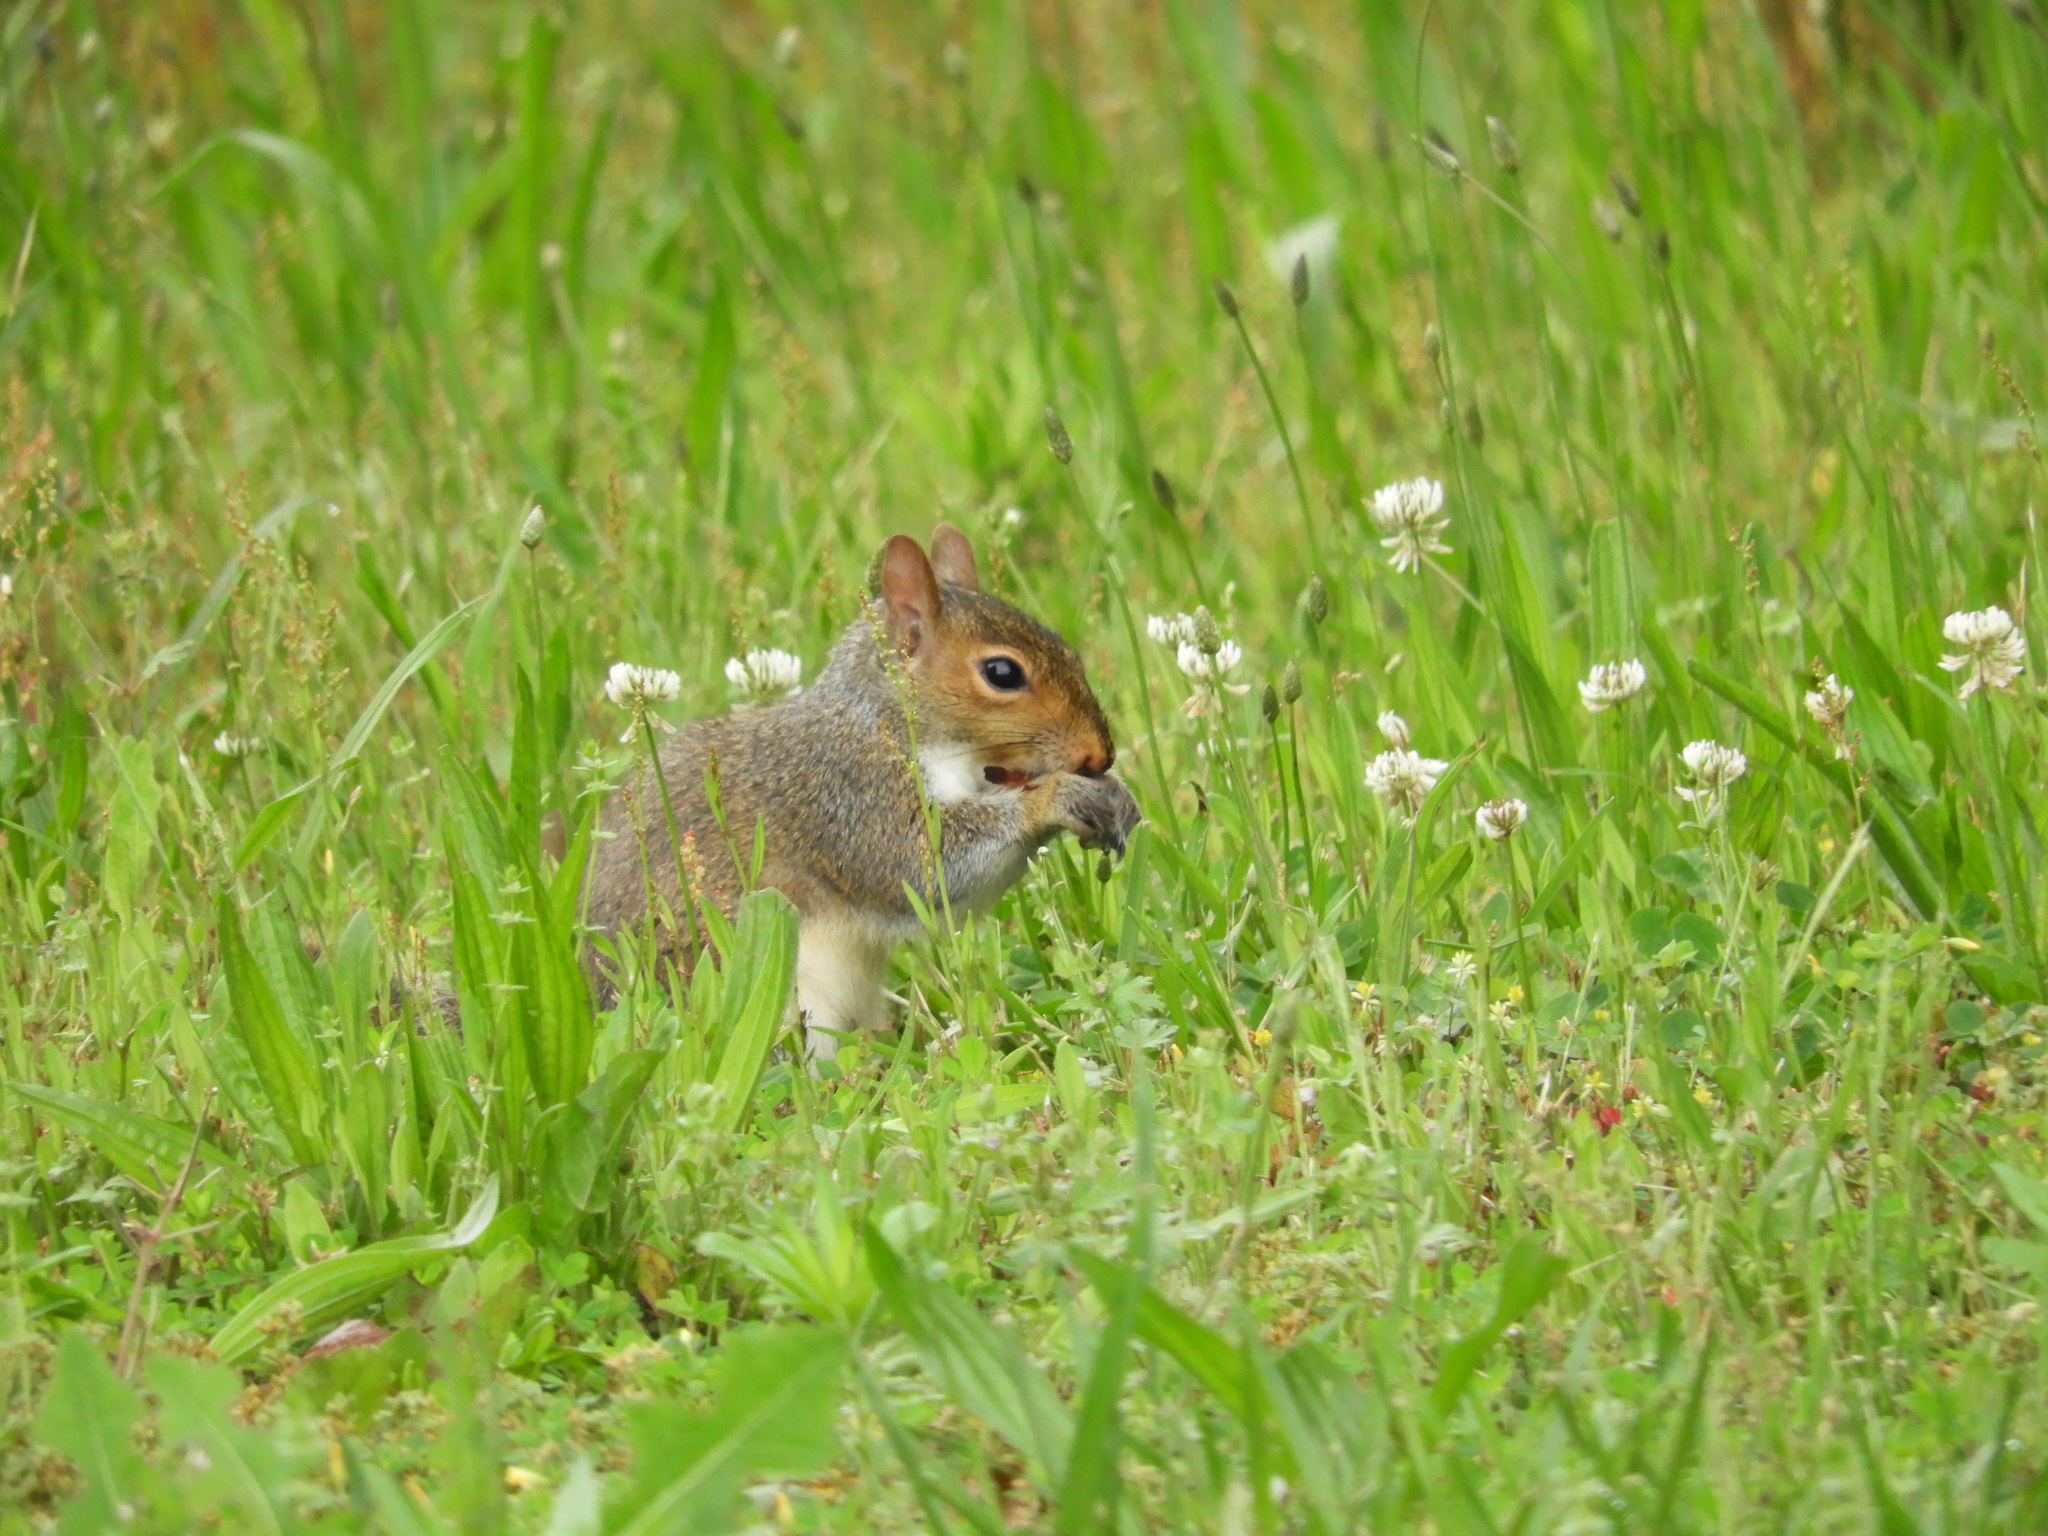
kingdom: Animalia
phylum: Chordata
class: Mammalia
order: Rodentia
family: Sciuridae
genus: Sciurus
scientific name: Sciurus carolinensis
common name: Eastern gray squirrel
